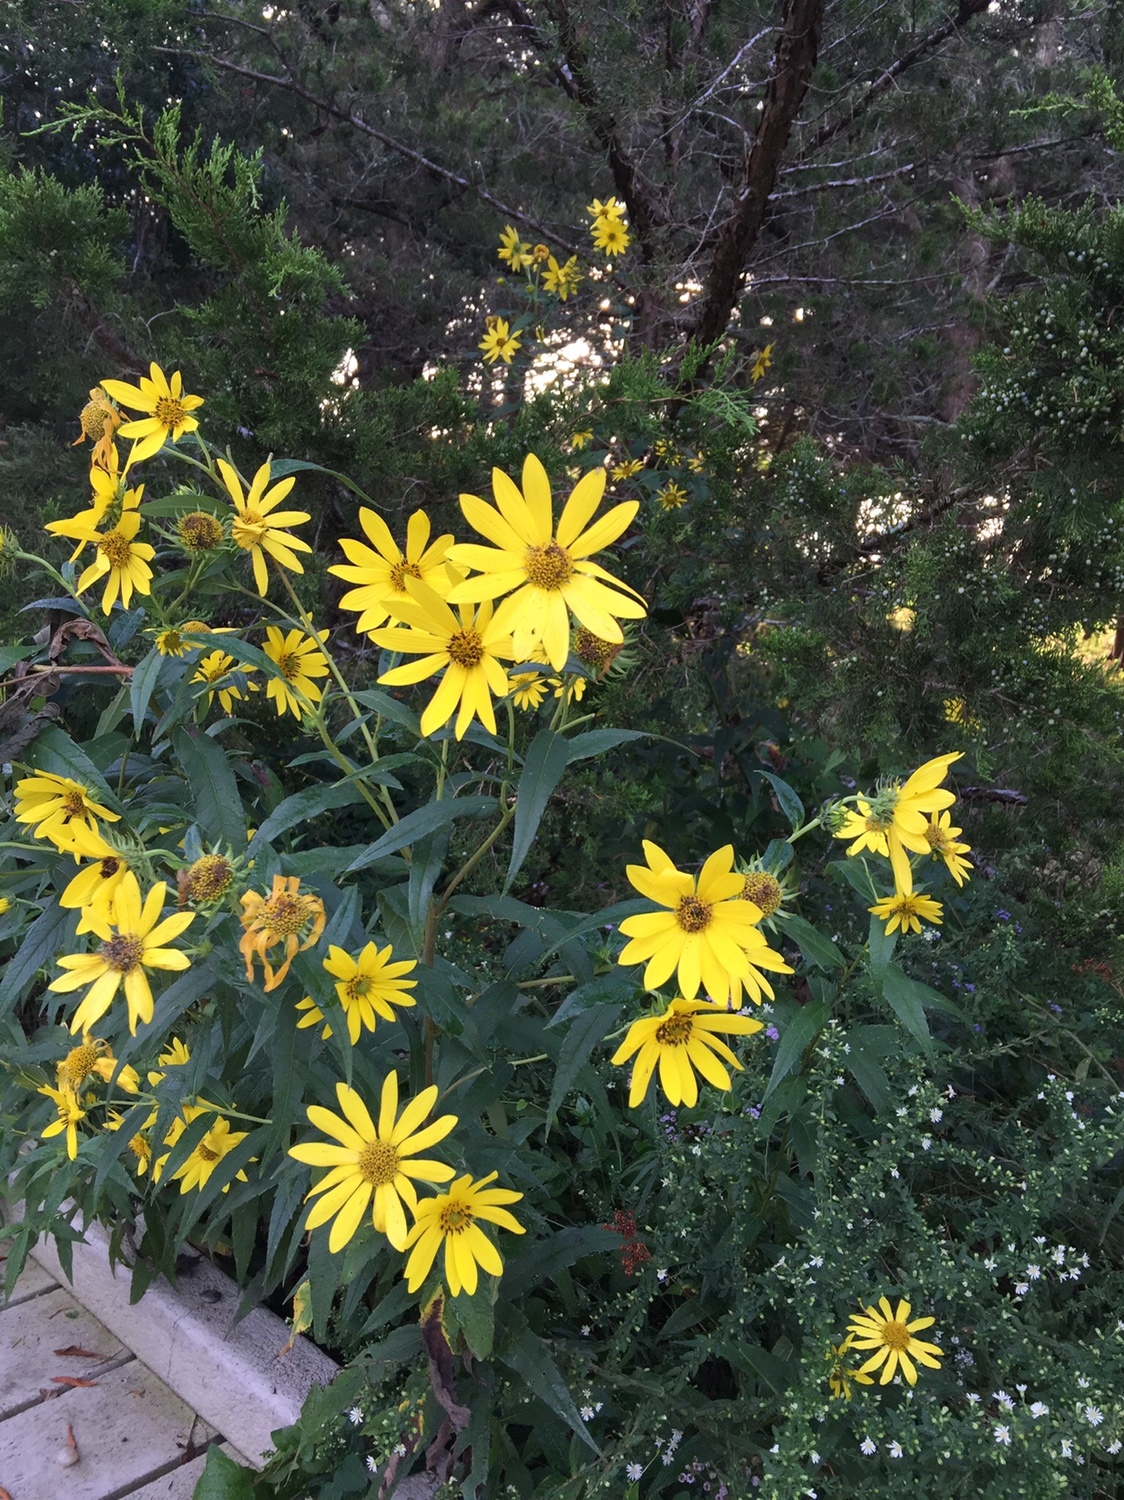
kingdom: Plantae
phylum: Tracheophyta
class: Magnoliopsida
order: Asterales
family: Asteraceae
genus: Helianthus
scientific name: Helianthus giganteus
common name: Giant sunflower
